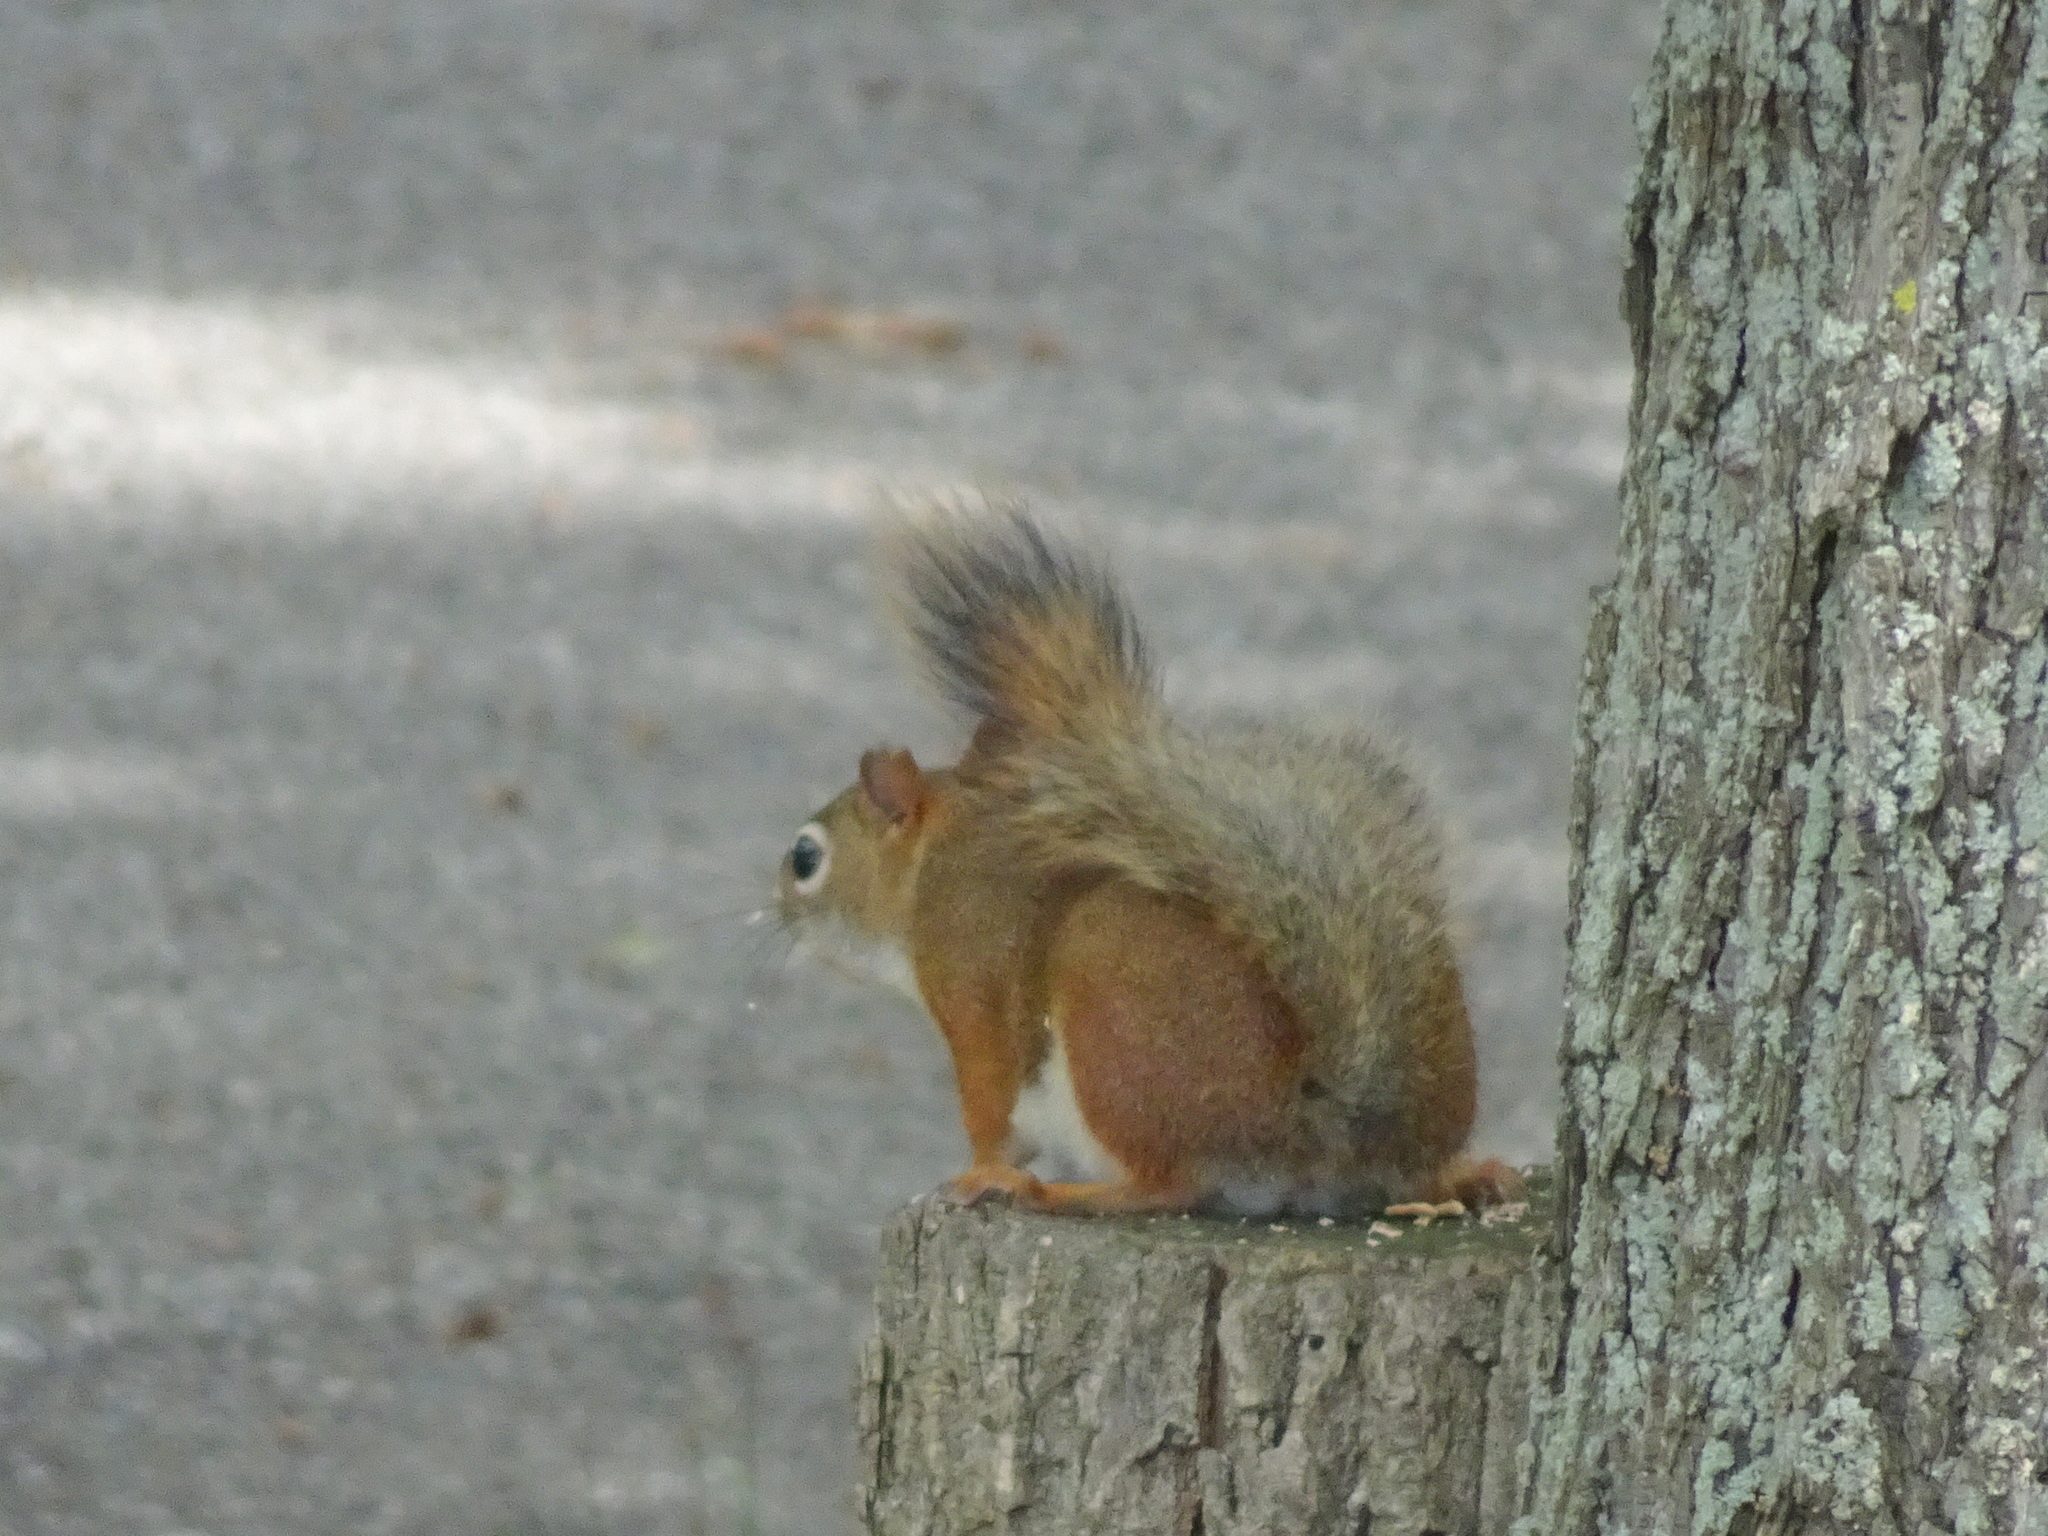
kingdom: Animalia
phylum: Chordata
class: Mammalia
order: Rodentia
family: Sciuridae
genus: Tamiasciurus
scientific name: Tamiasciurus hudsonicus
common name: Red squirrel
